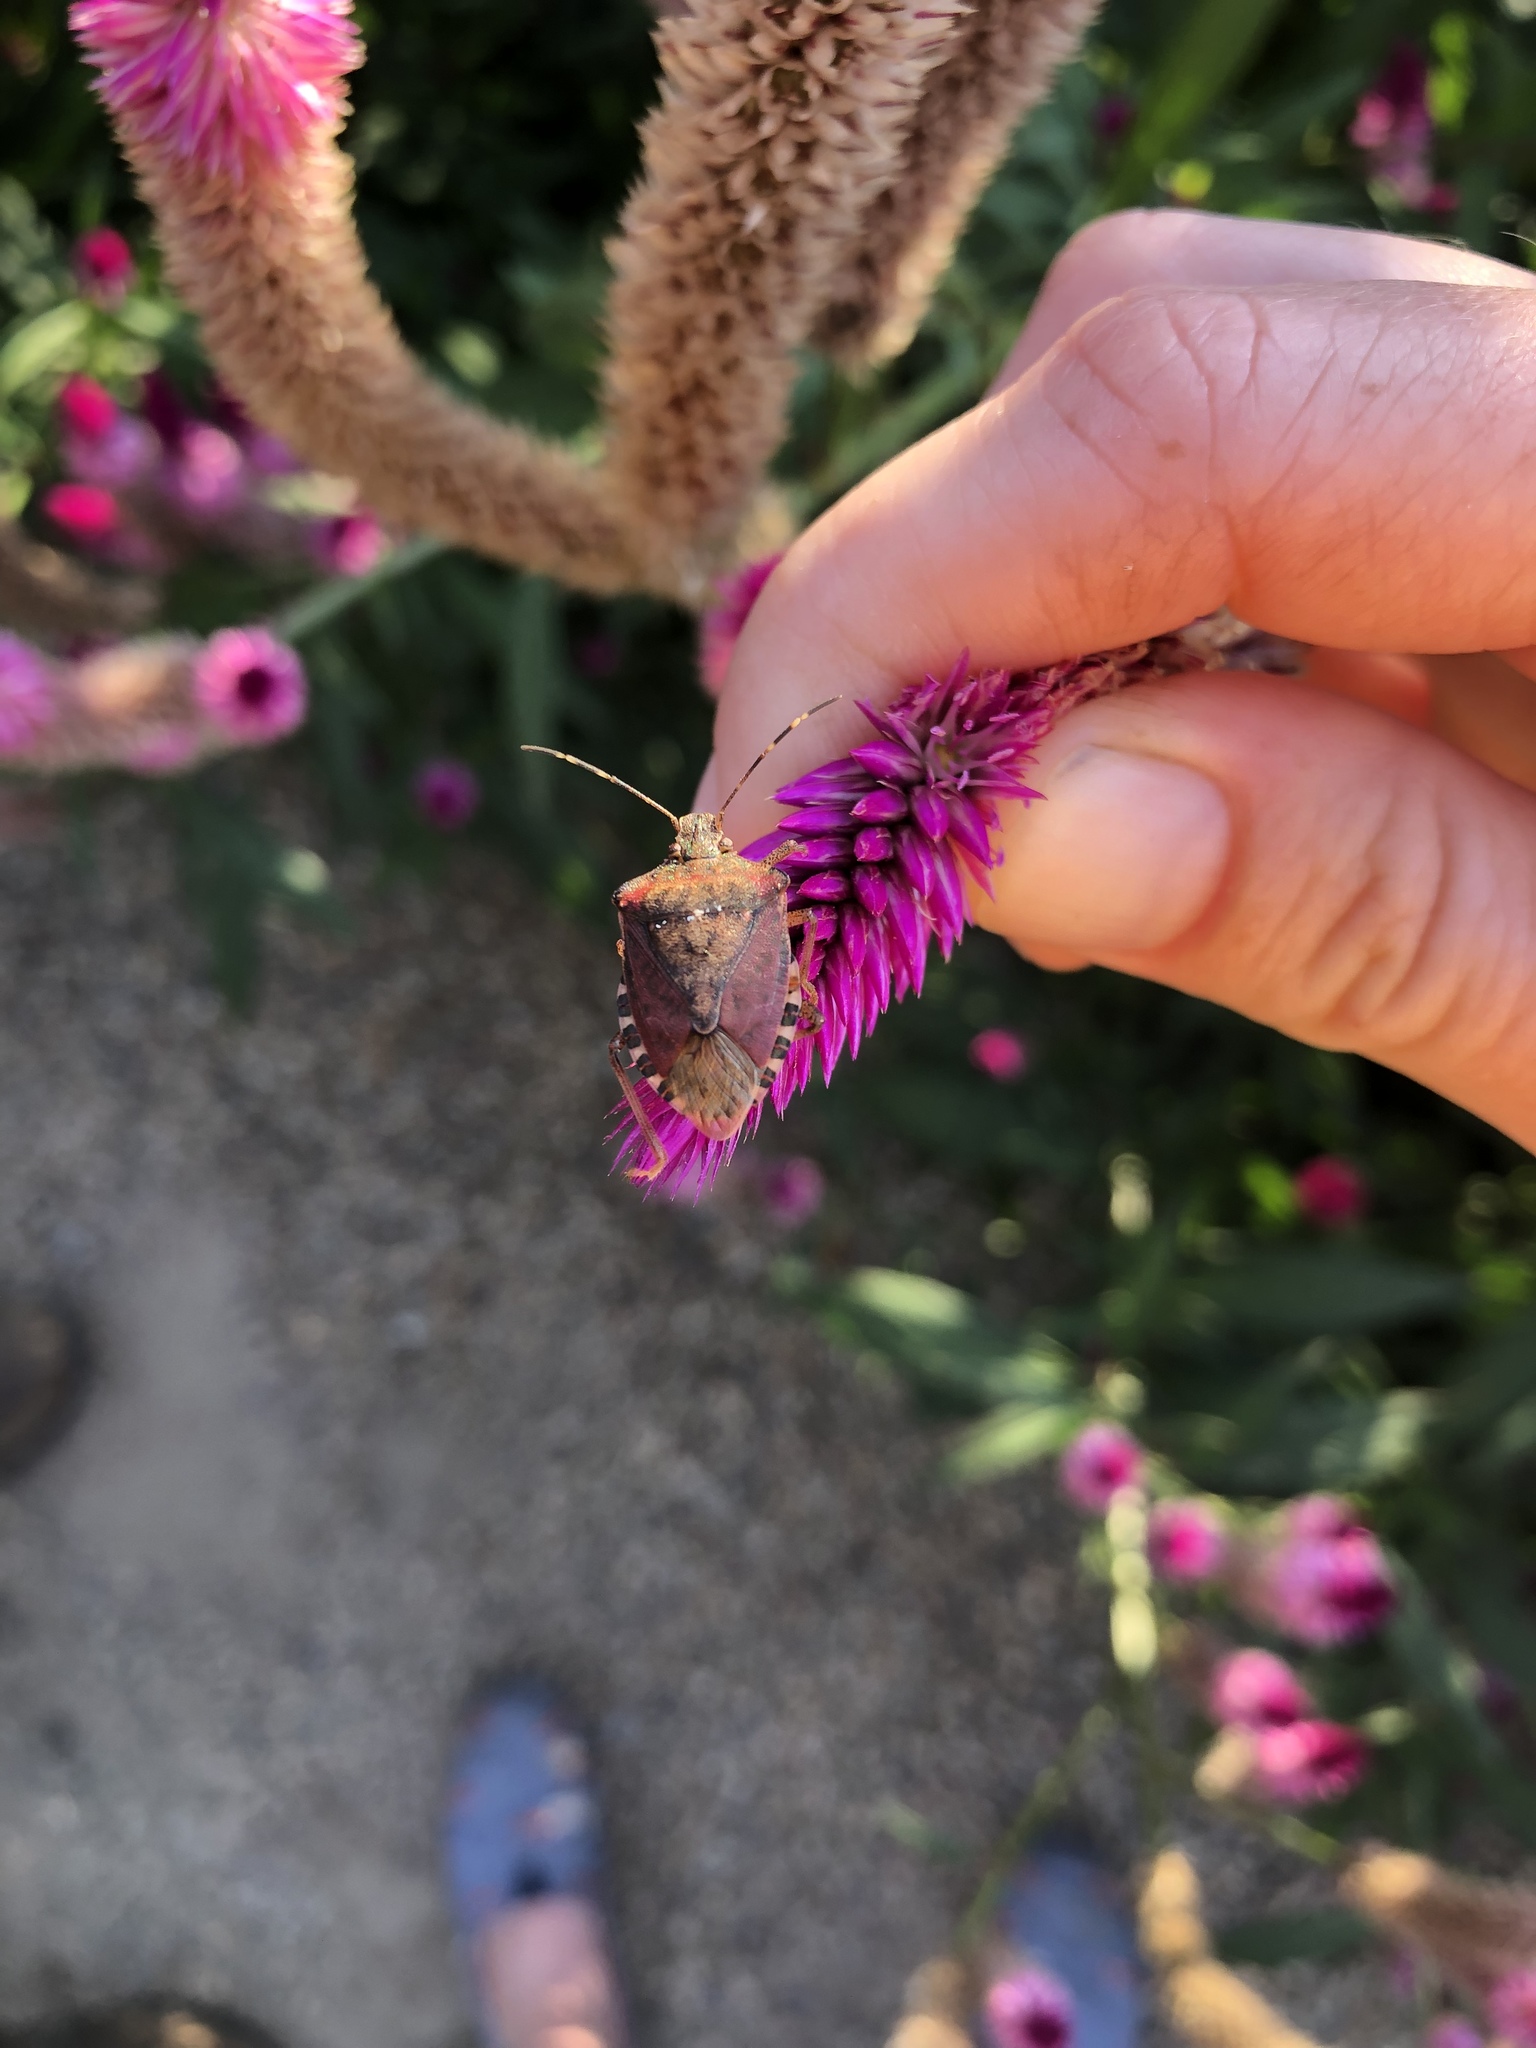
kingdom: Animalia
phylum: Arthropoda
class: Insecta
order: Hemiptera
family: Pentatomidae
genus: Halyomorpha
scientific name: Halyomorpha halys
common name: Brown marmorated stink bug
